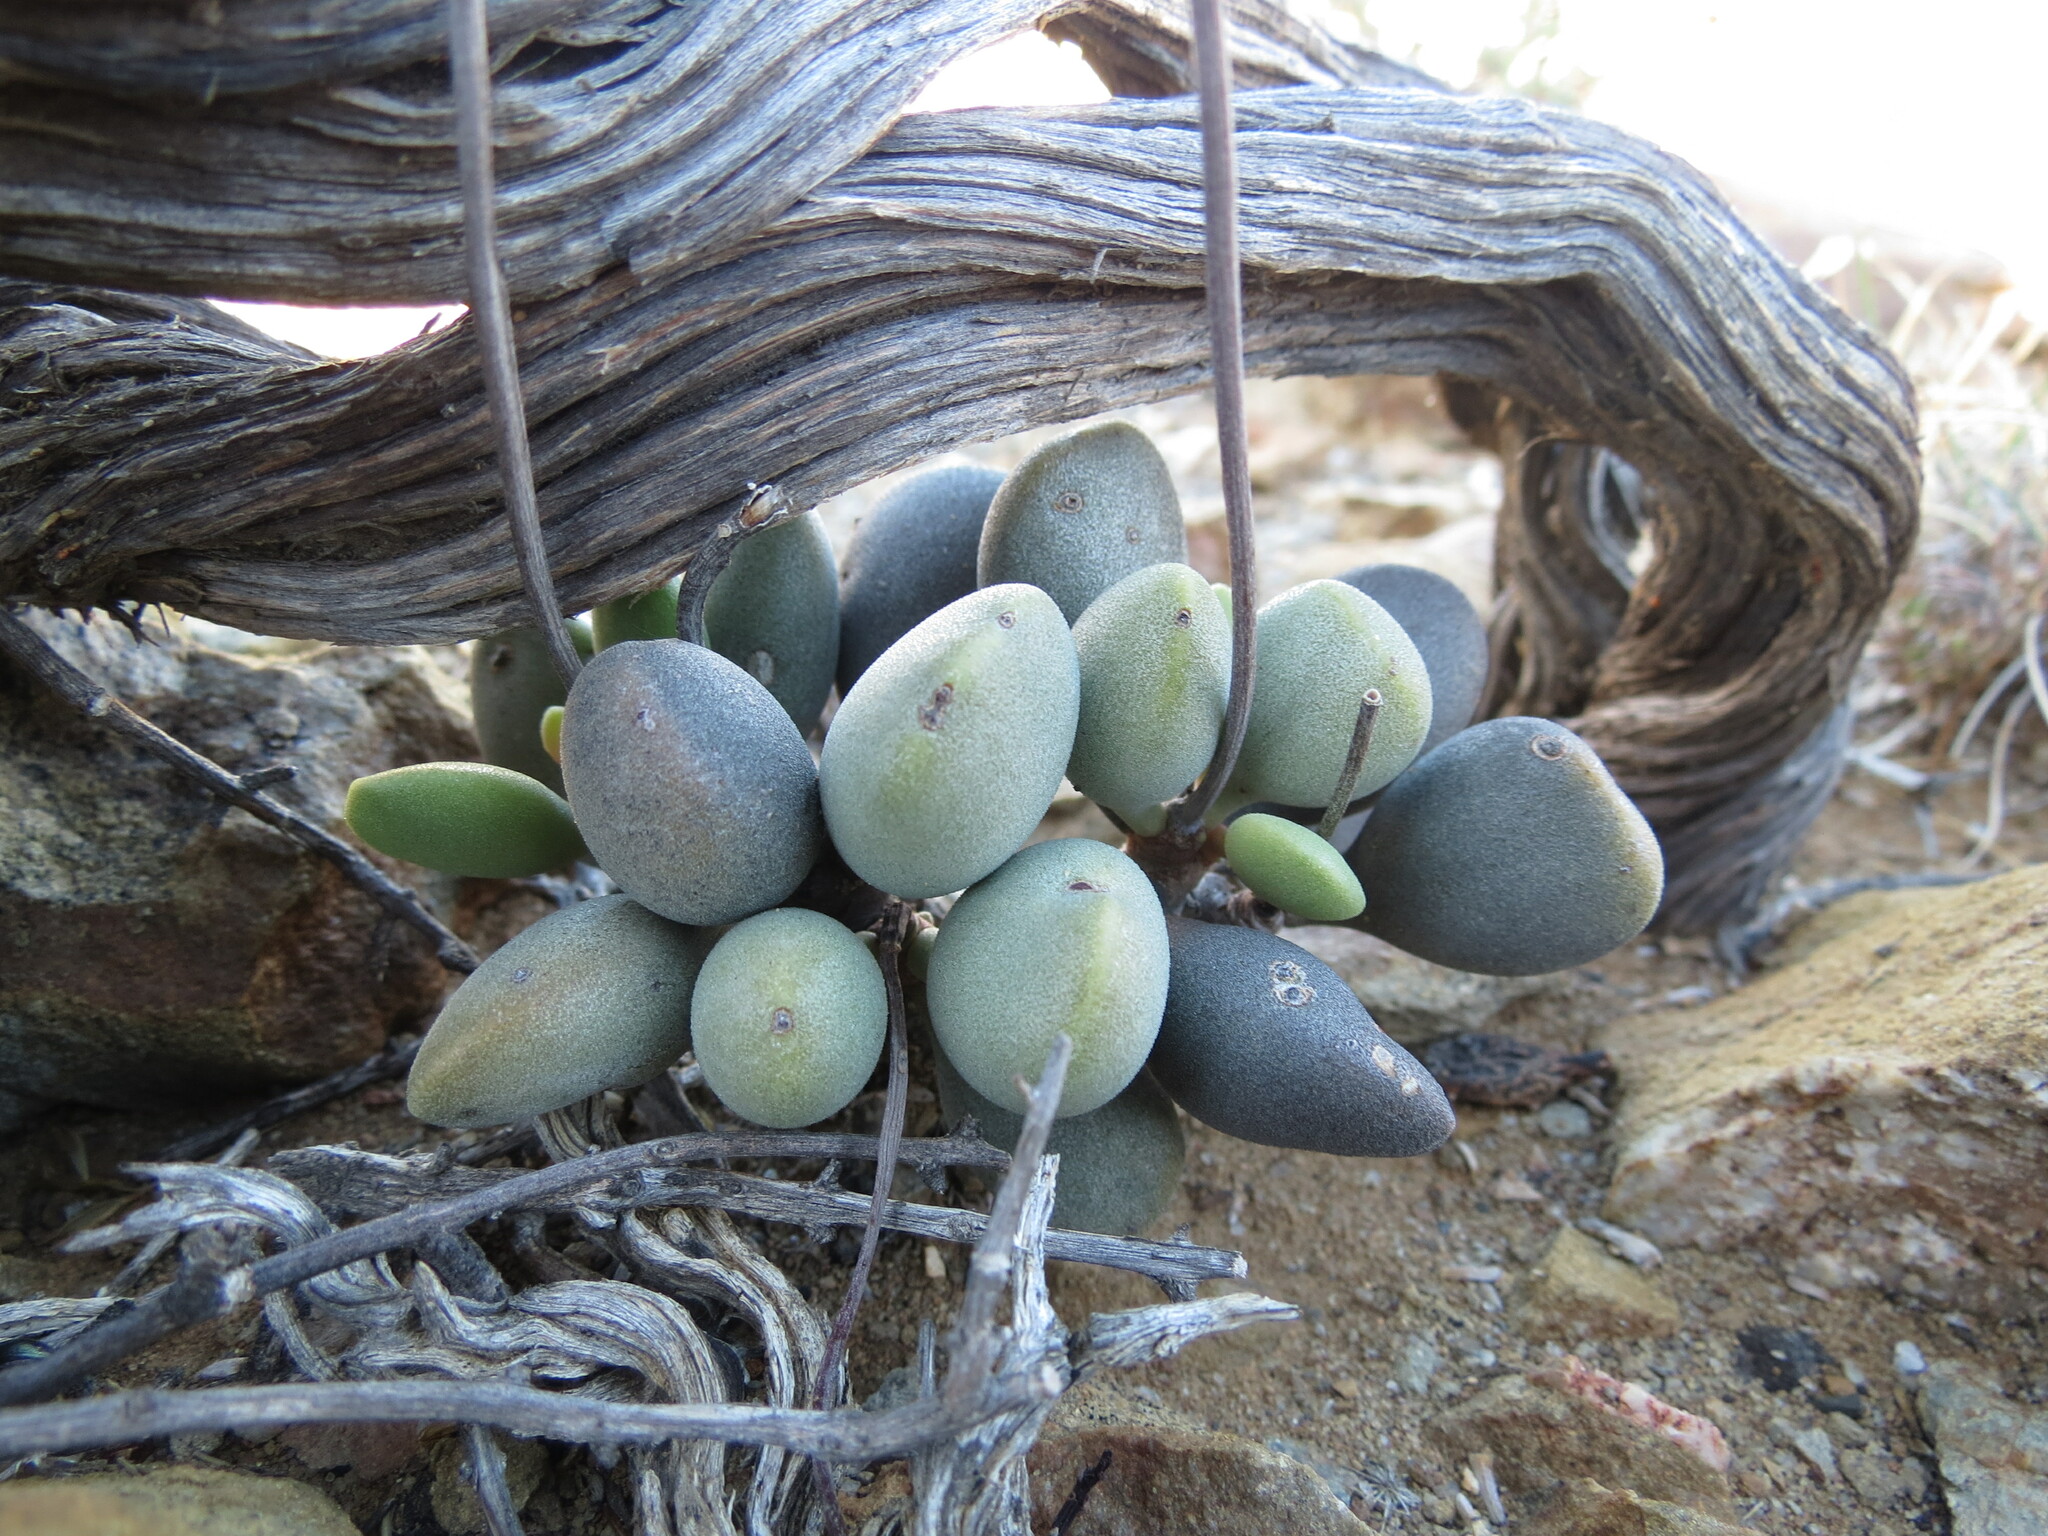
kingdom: Plantae
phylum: Tracheophyta
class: Magnoliopsida
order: Saxifragales
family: Crassulaceae
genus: Adromischus
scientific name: Adromischus liebenbergii
